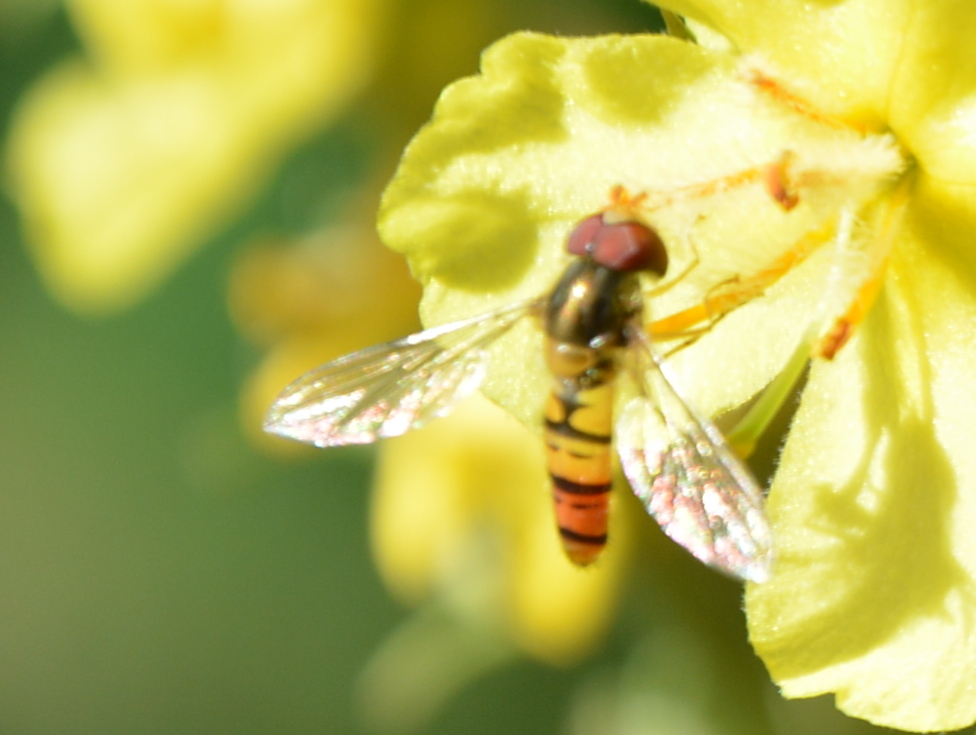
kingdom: Animalia
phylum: Arthropoda
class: Insecta
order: Diptera
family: Syrphidae
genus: Episyrphus
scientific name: Episyrphus balteatus
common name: Marmalade hoverfly
